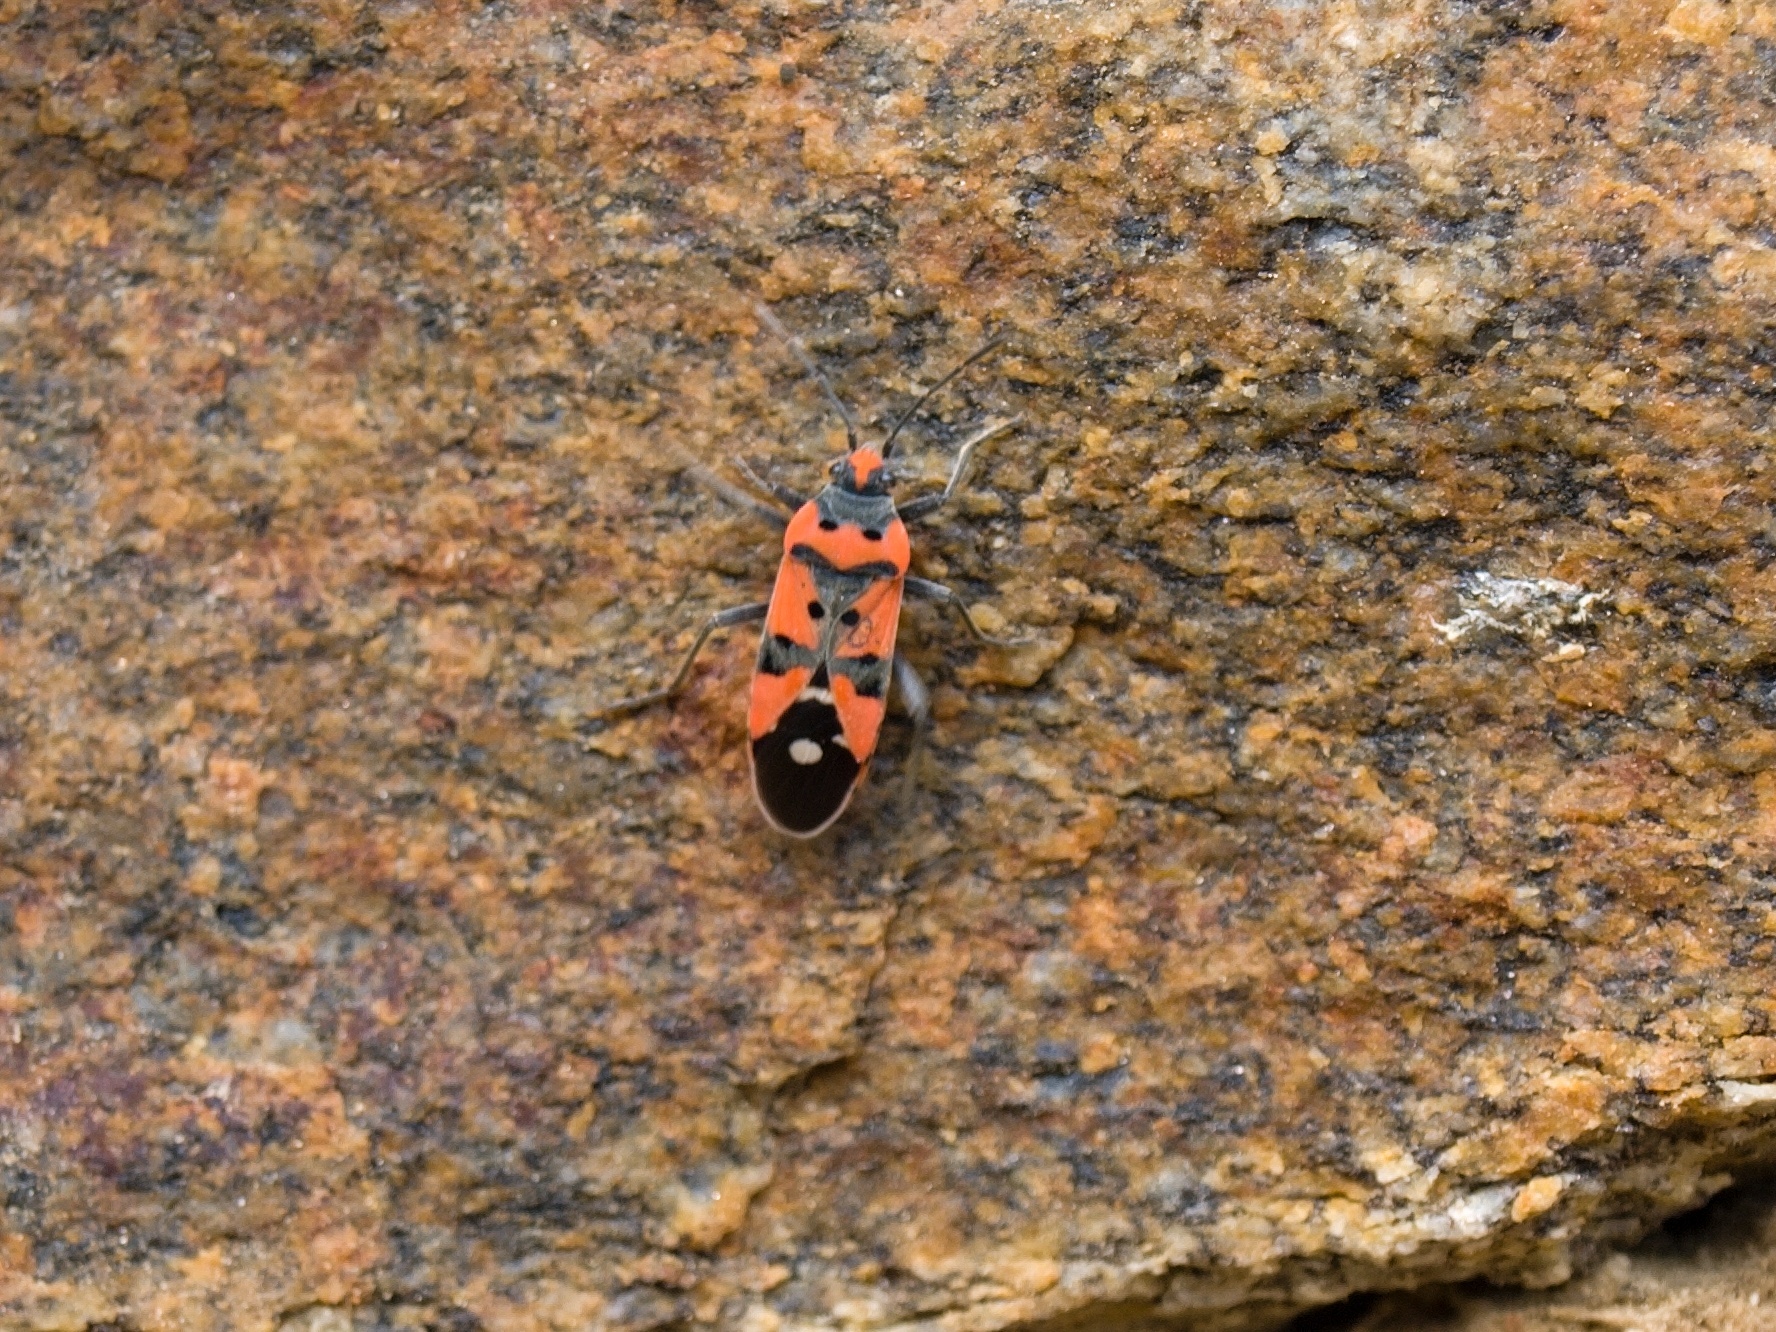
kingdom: Animalia
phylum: Arthropoda
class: Insecta
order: Hemiptera
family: Lygaeidae
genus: Lygaeus
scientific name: Lygaeus equestris
